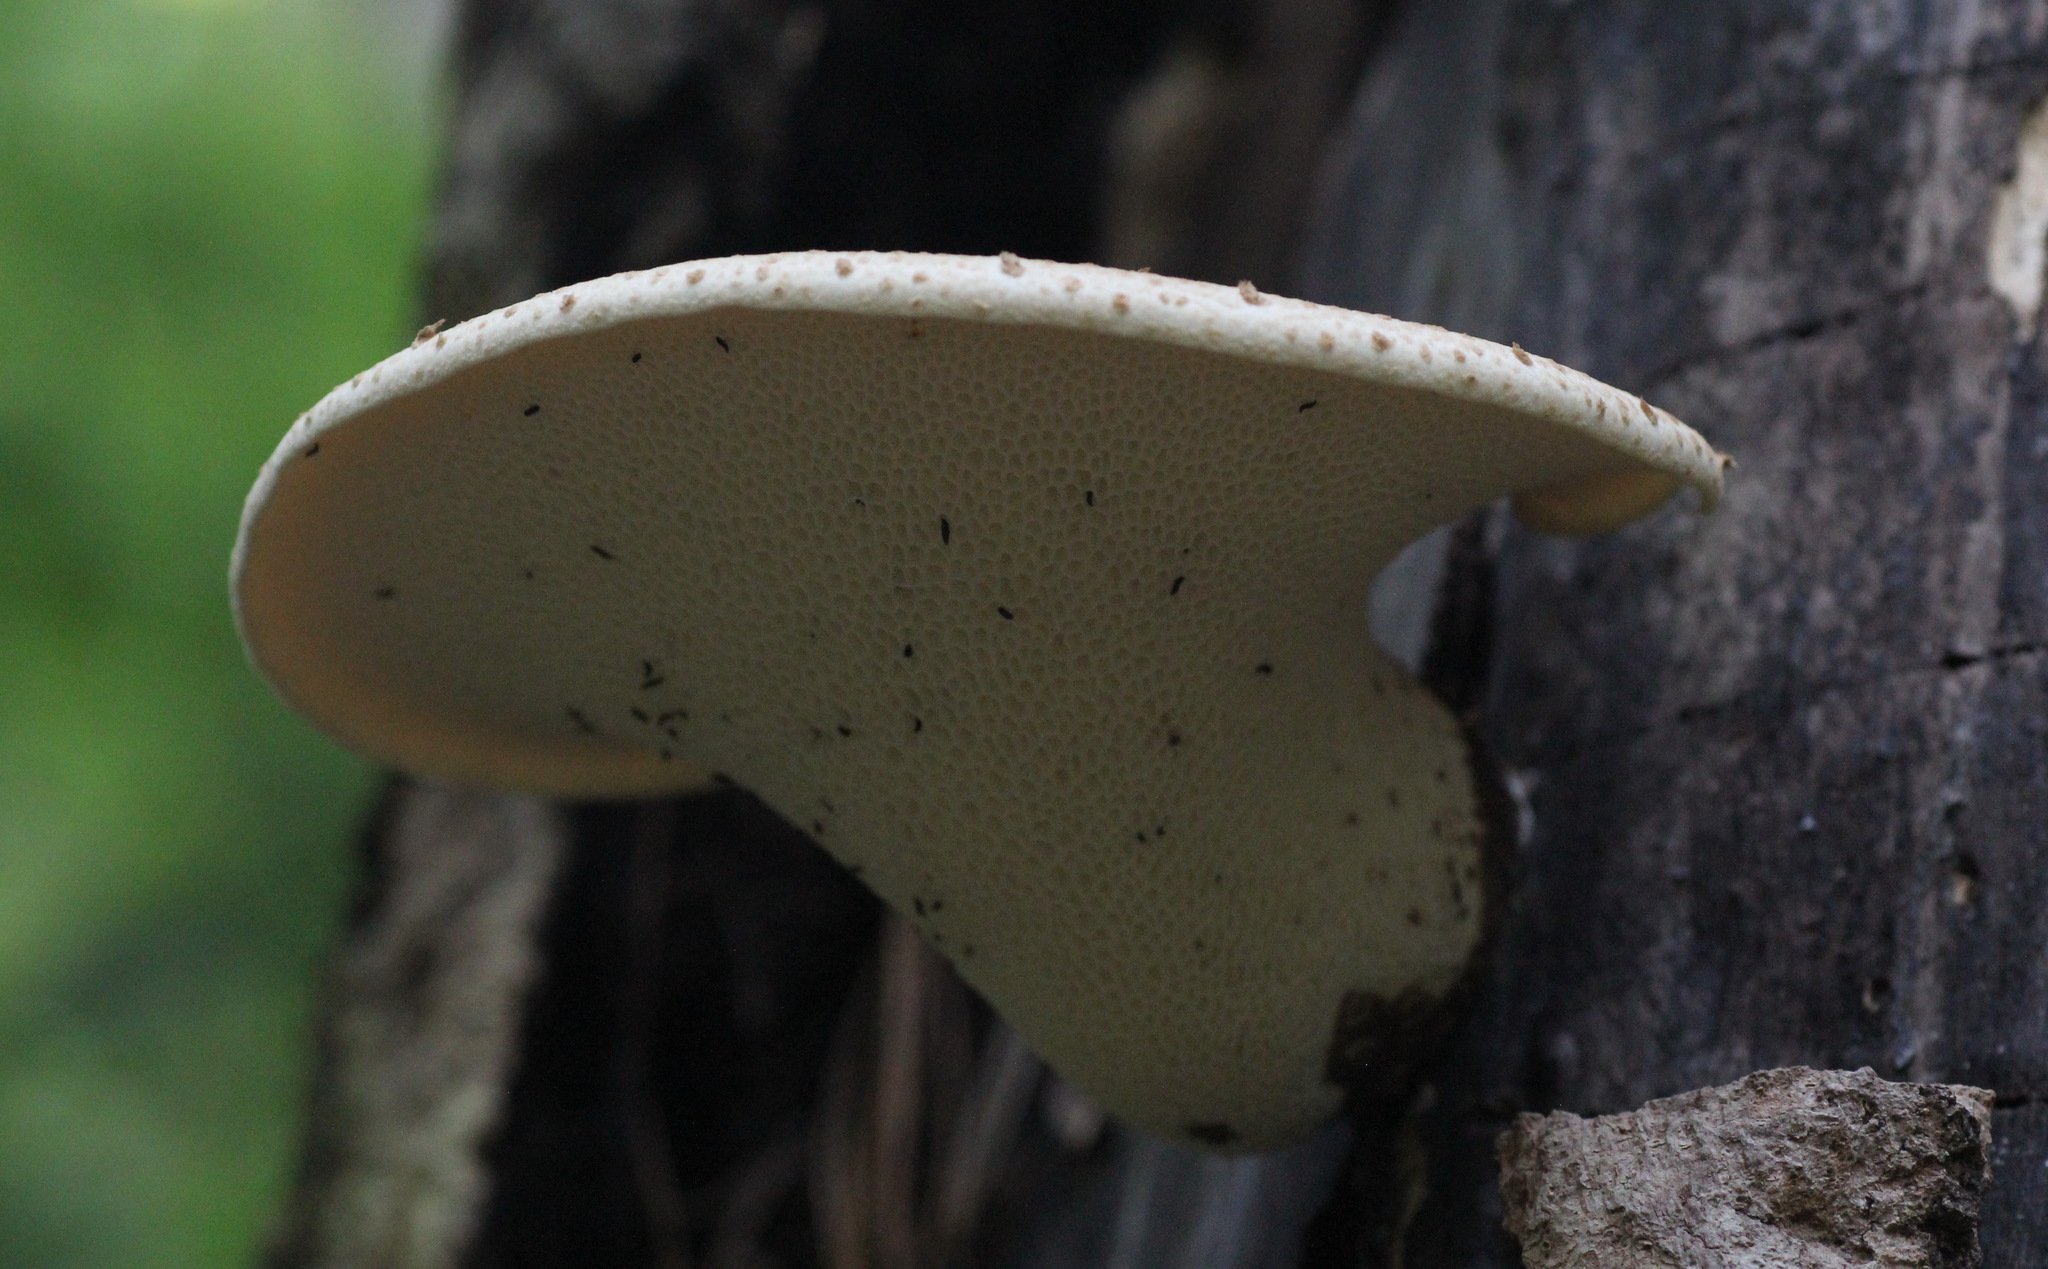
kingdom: Fungi
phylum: Basidiomycota
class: Agaricomycetes
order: Polyporales
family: Polyporaceae
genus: Cerioporus
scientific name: Cerioporus squamosus
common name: Dryad's saddle
